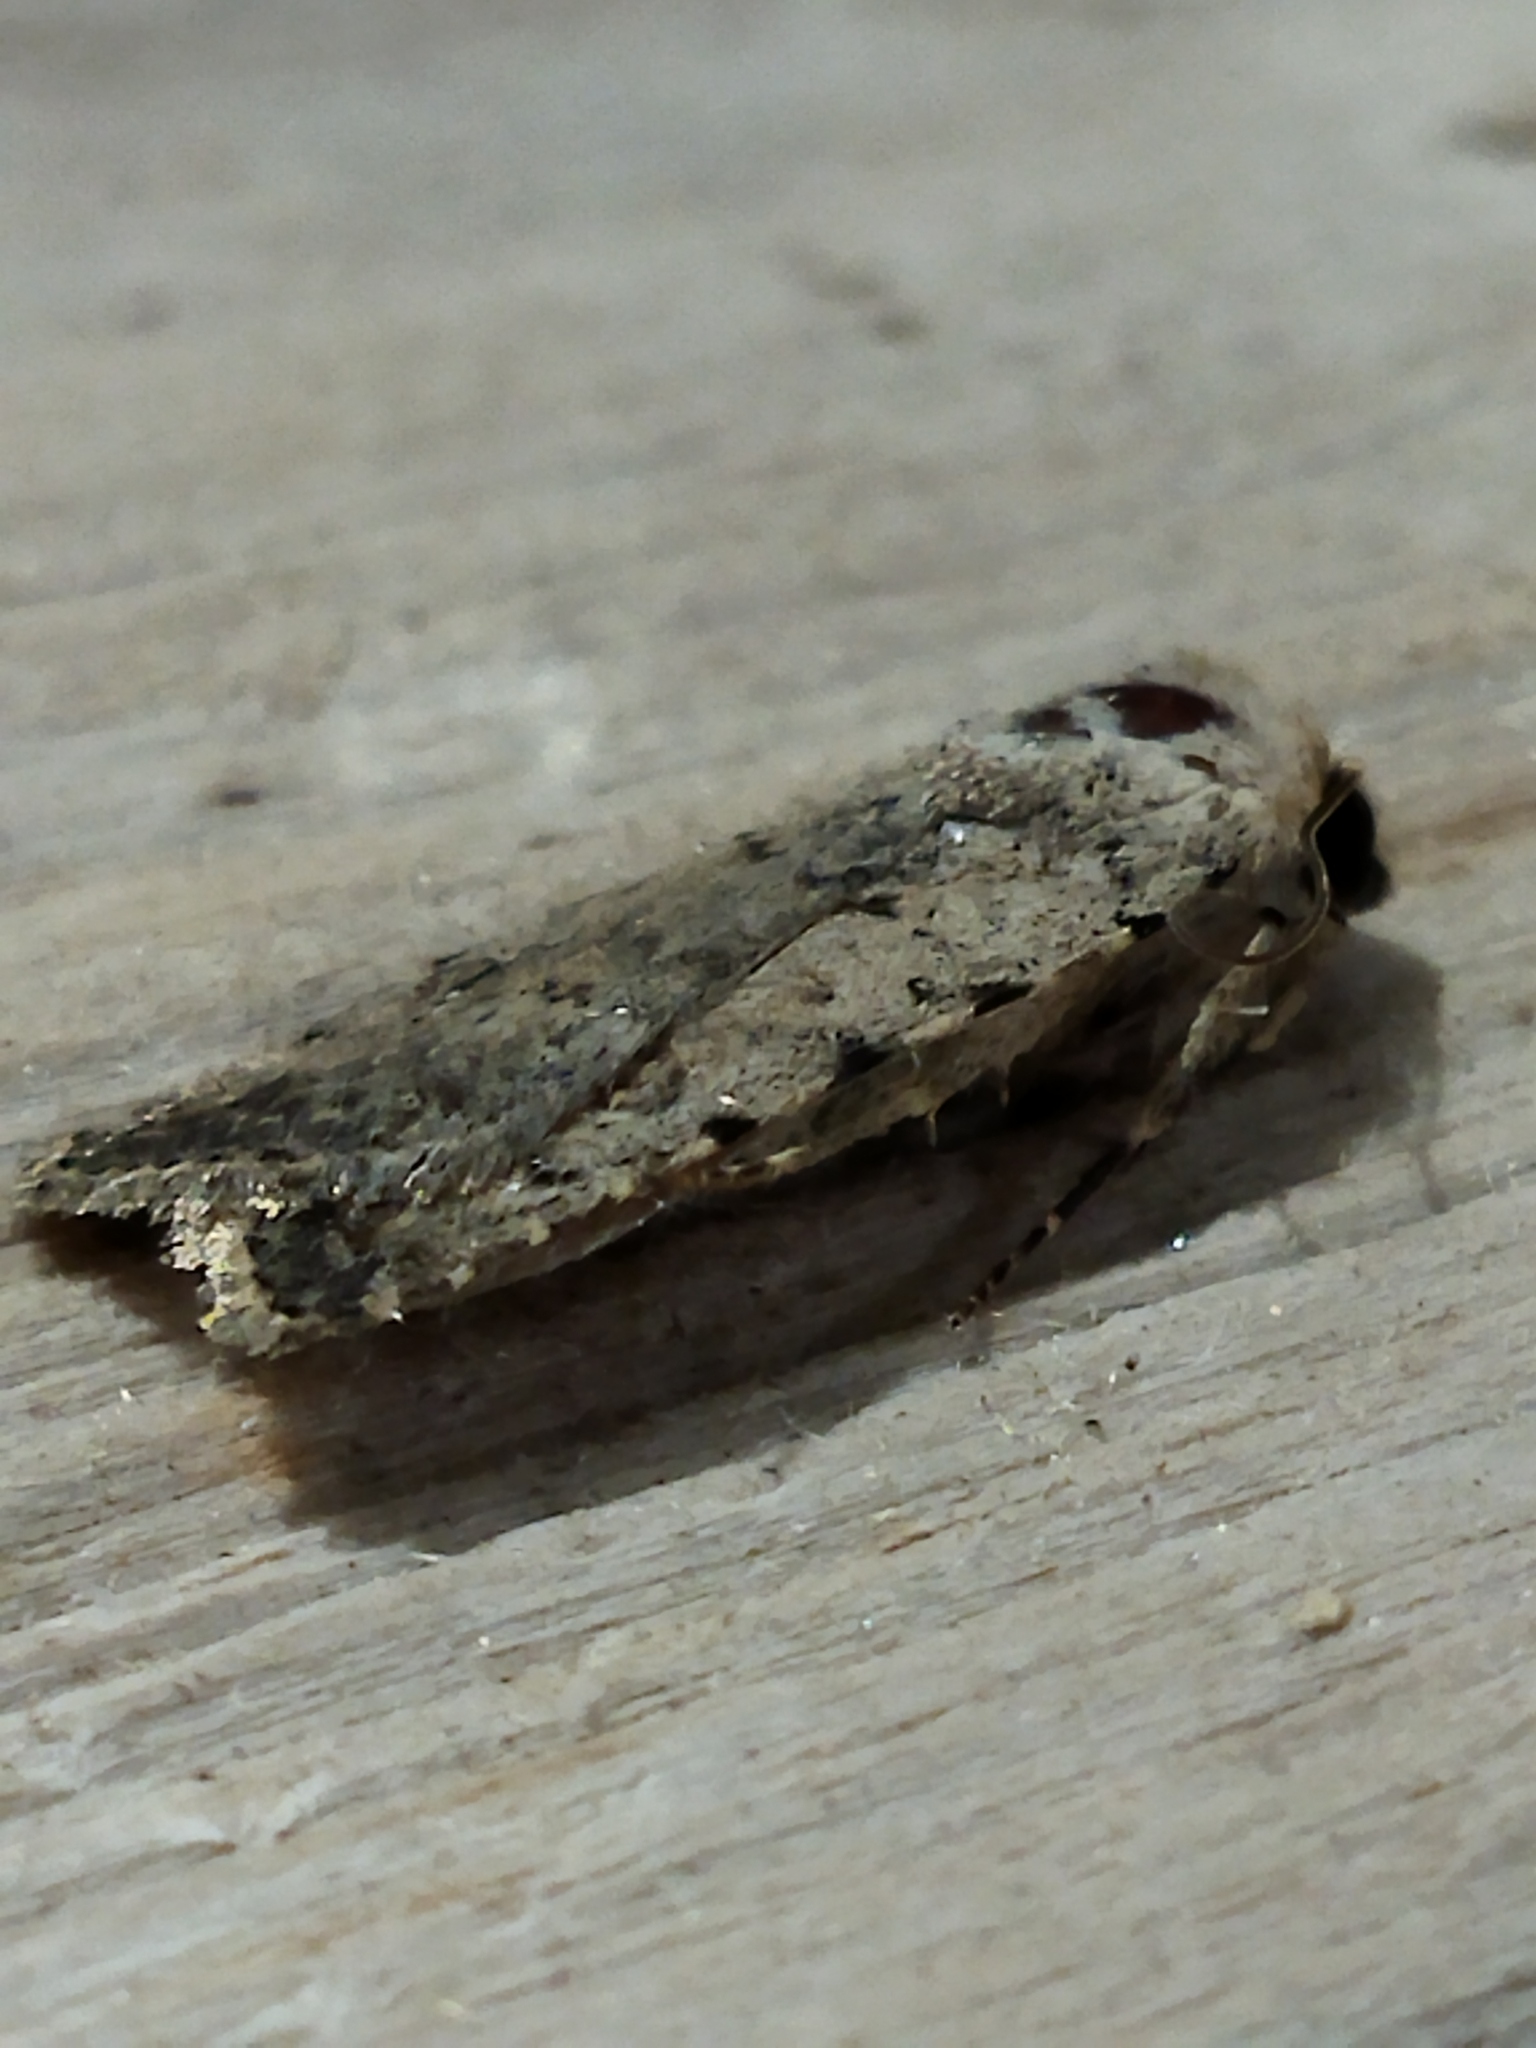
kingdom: Animalia
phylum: Arthropoda
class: Insecta
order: Lepidoptera
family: Noctuidae
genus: Caradrina
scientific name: Caradrina clavipalpis
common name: Pale mottled willow
